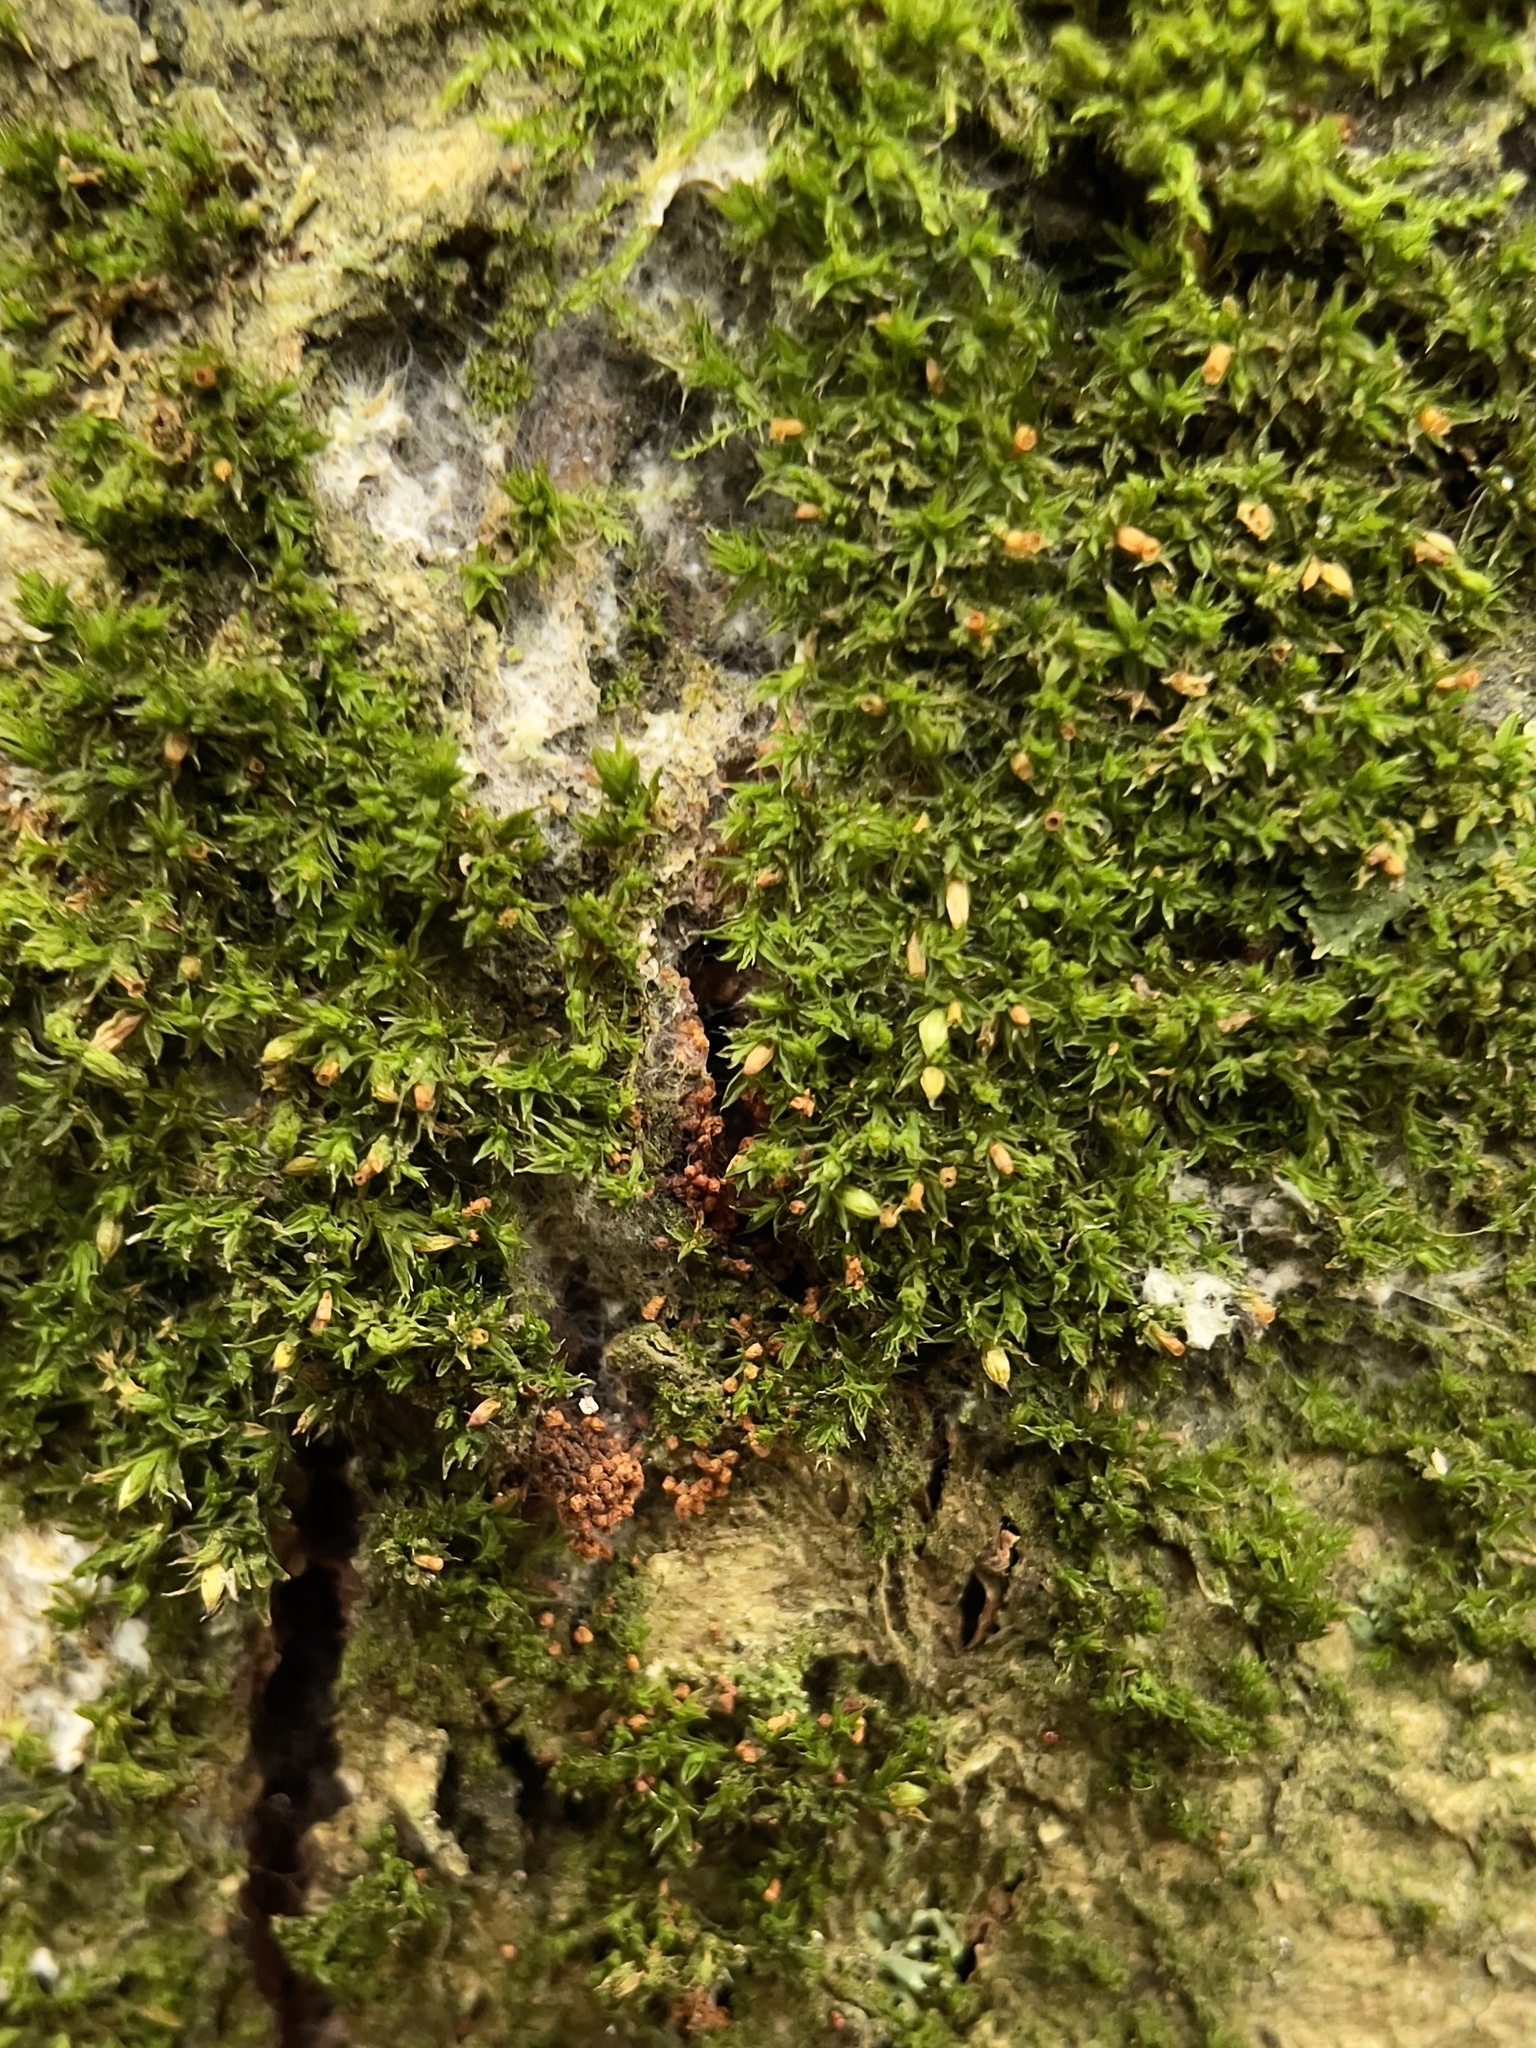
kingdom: Plantae
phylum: Bryophyta
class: Bryopsida
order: Orthotrichales
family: Orthotrichaceae
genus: Orthotrichum
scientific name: Orthotrichum diaphanum
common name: White-tipped bristle-moss
